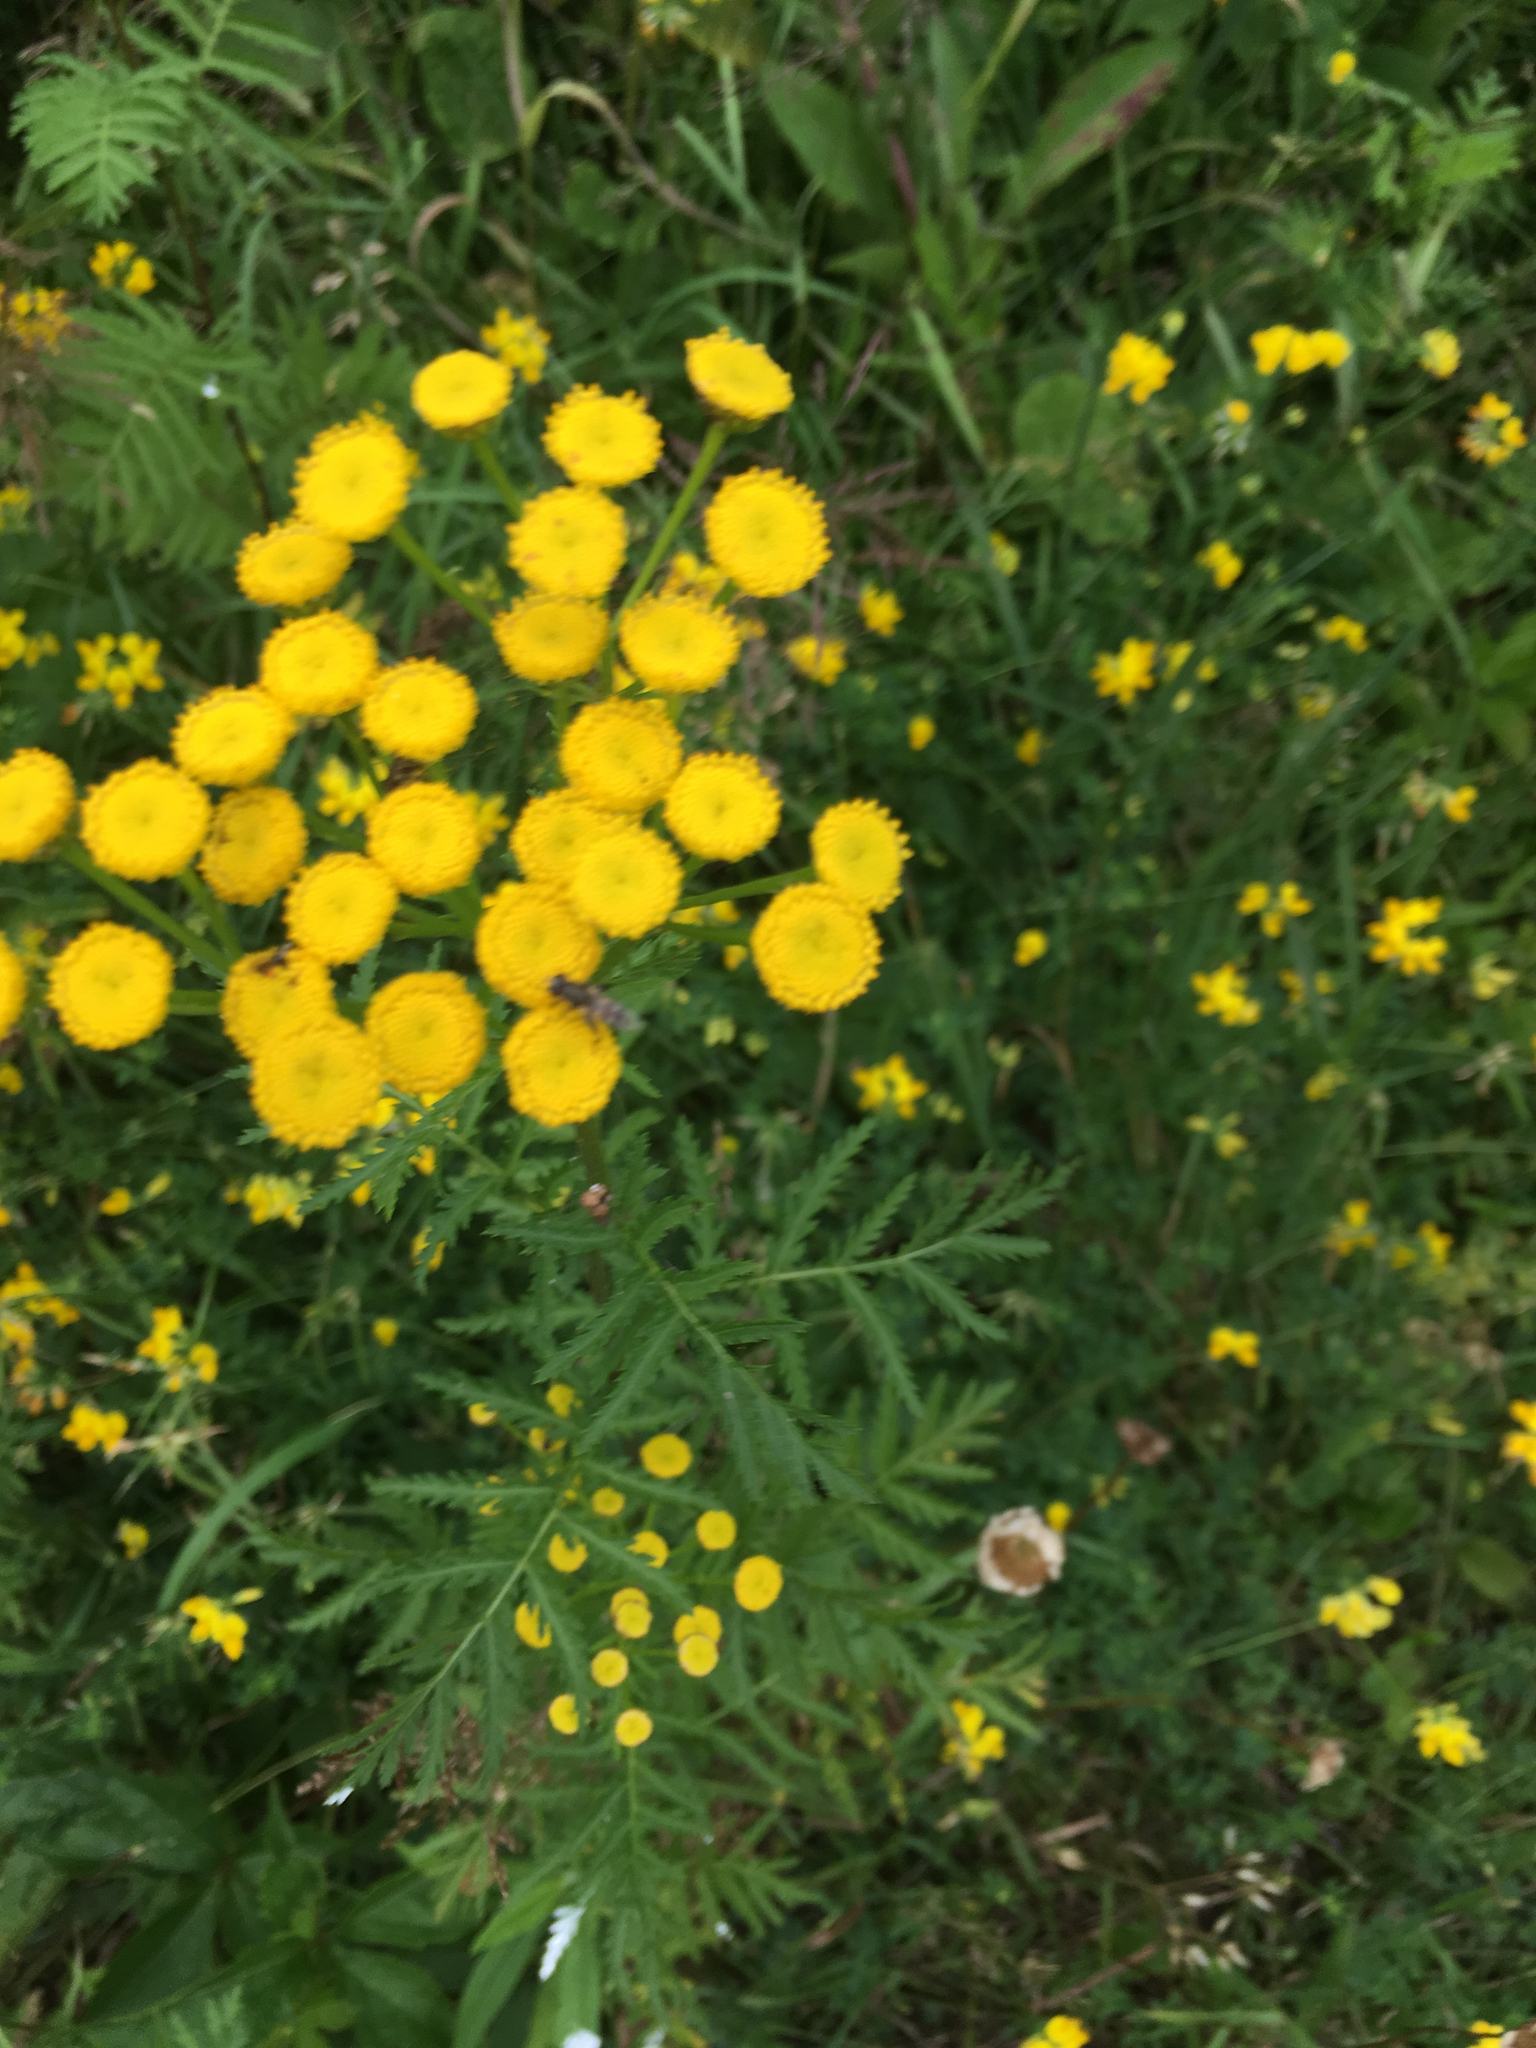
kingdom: Plantae
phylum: Tracheophyta
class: Magnoliopsida
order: Asterales
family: Asteraceae
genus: Tanacetum
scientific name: Tanacetum vulgare
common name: Common tansy
